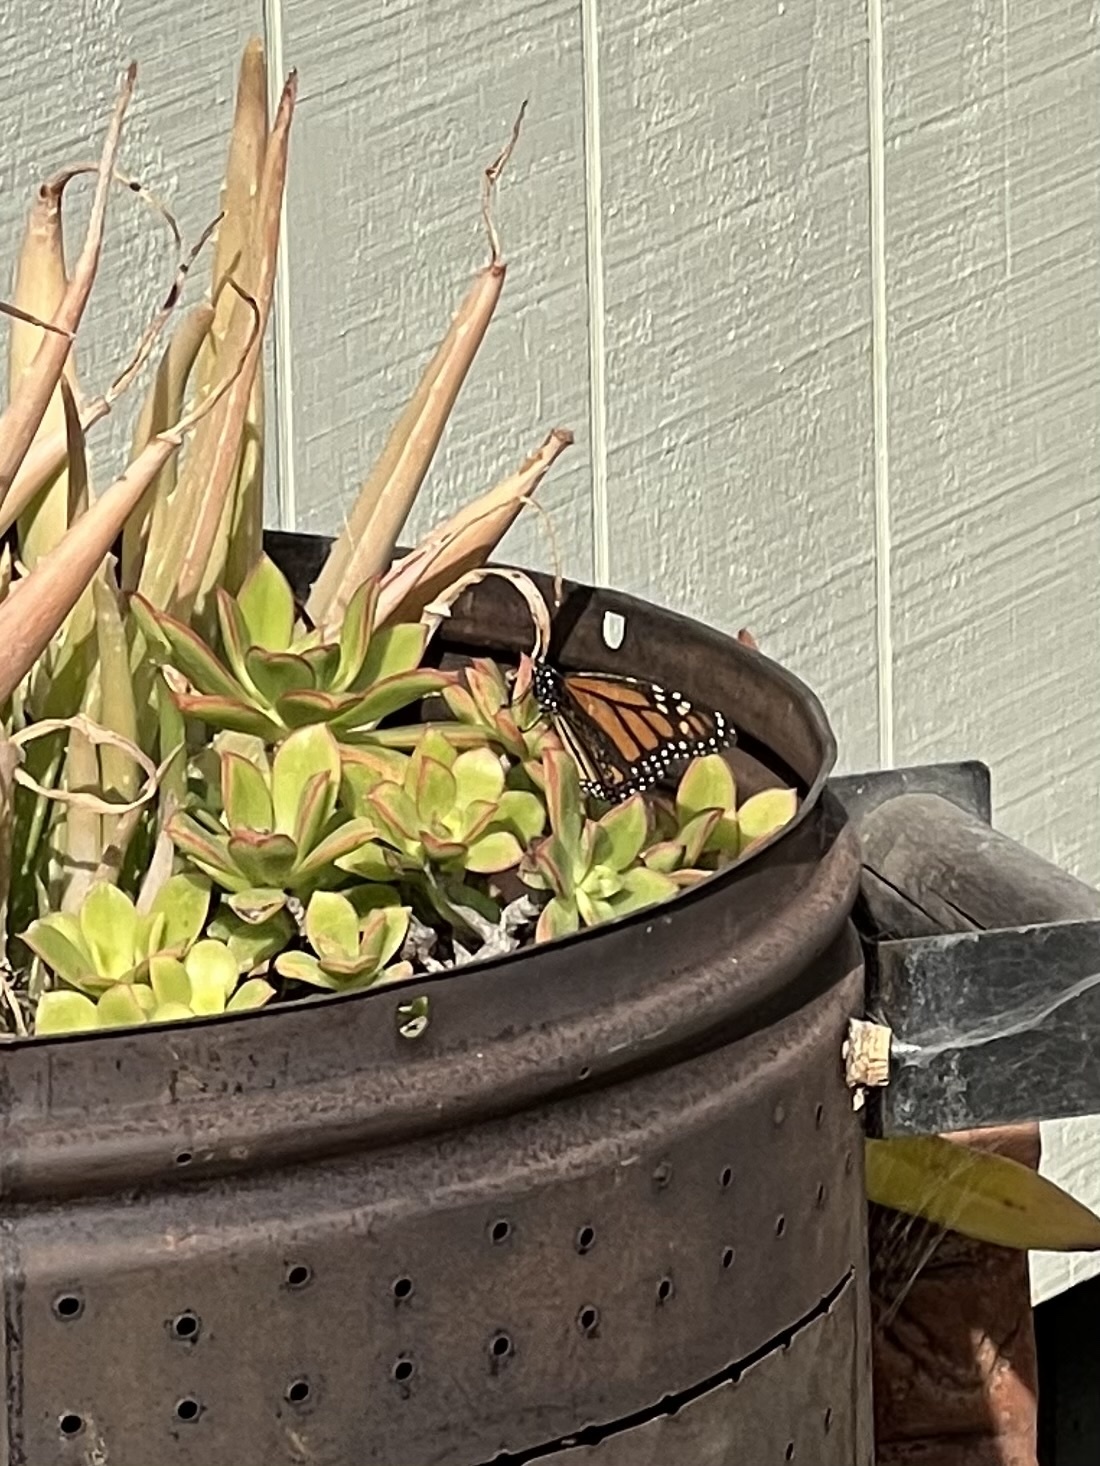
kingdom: Animalia
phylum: Arthropoda
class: Insecta
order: Lepidoptera
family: Nymphalidae
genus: Danaus
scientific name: Danaus plexippus
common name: Monarch
